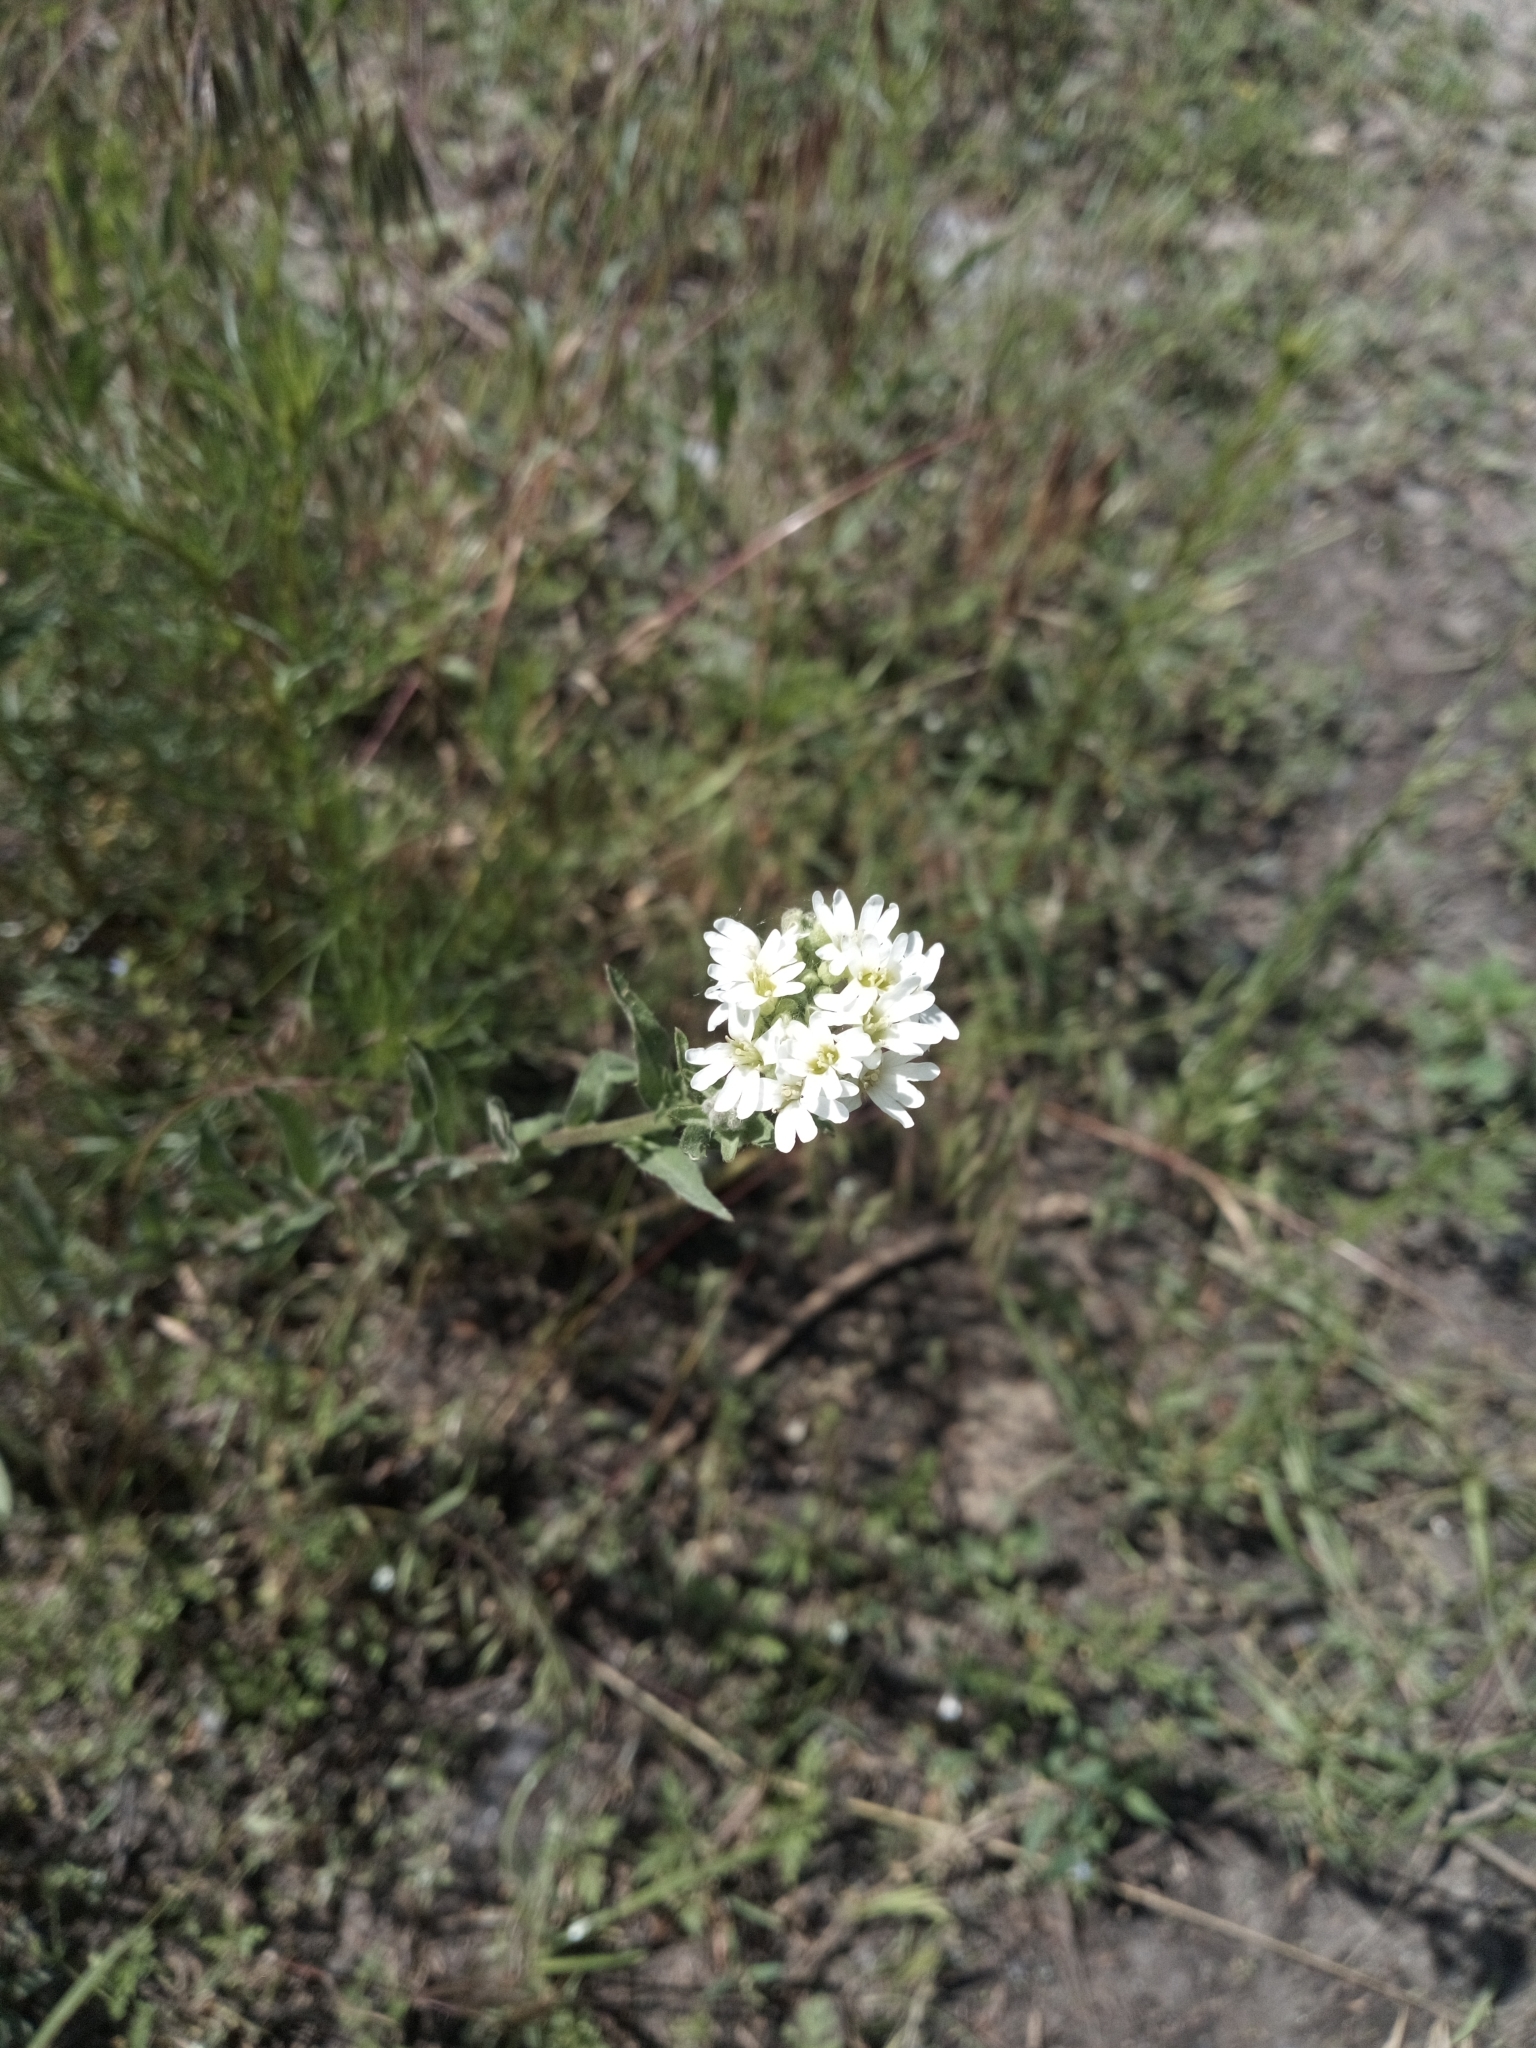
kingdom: Plantae
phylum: Tracheophyta
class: Magnoliopsida
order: Brassicales
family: Brassicaceae
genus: Berteroa
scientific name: Berteroa incana
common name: Hoary alison
